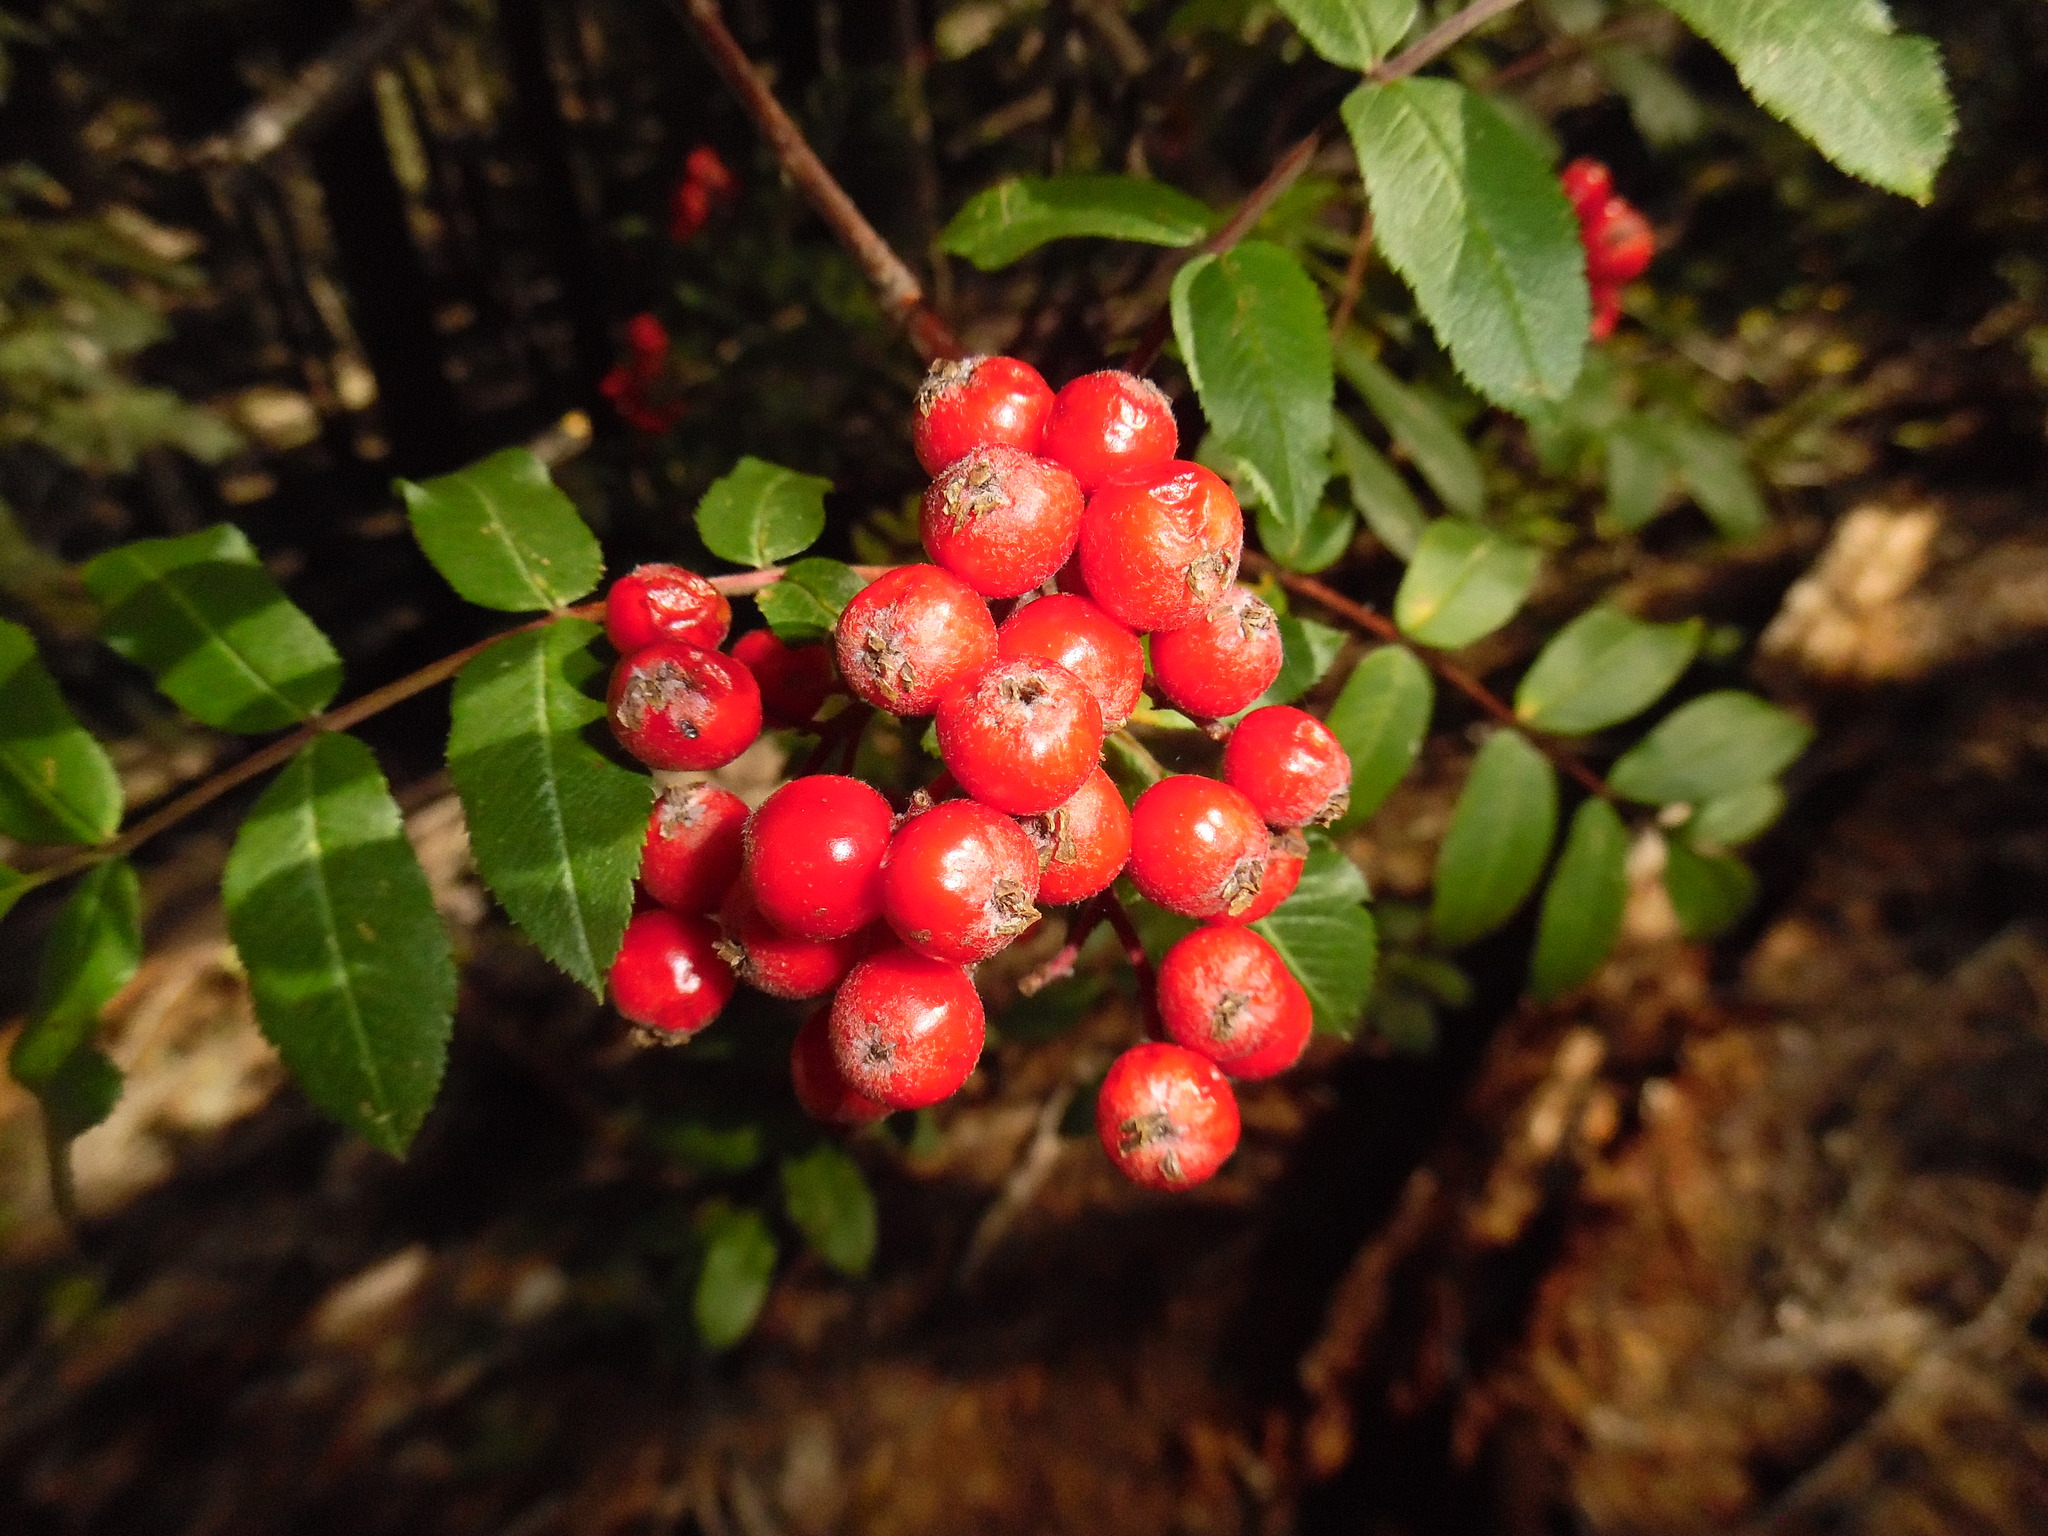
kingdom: Plantae
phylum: Tracheophyta
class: Magnoliopsida
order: Rosales
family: Rosaceae
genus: Sorbus
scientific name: Sorbus scopulina
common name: Greene's mountain-ash
